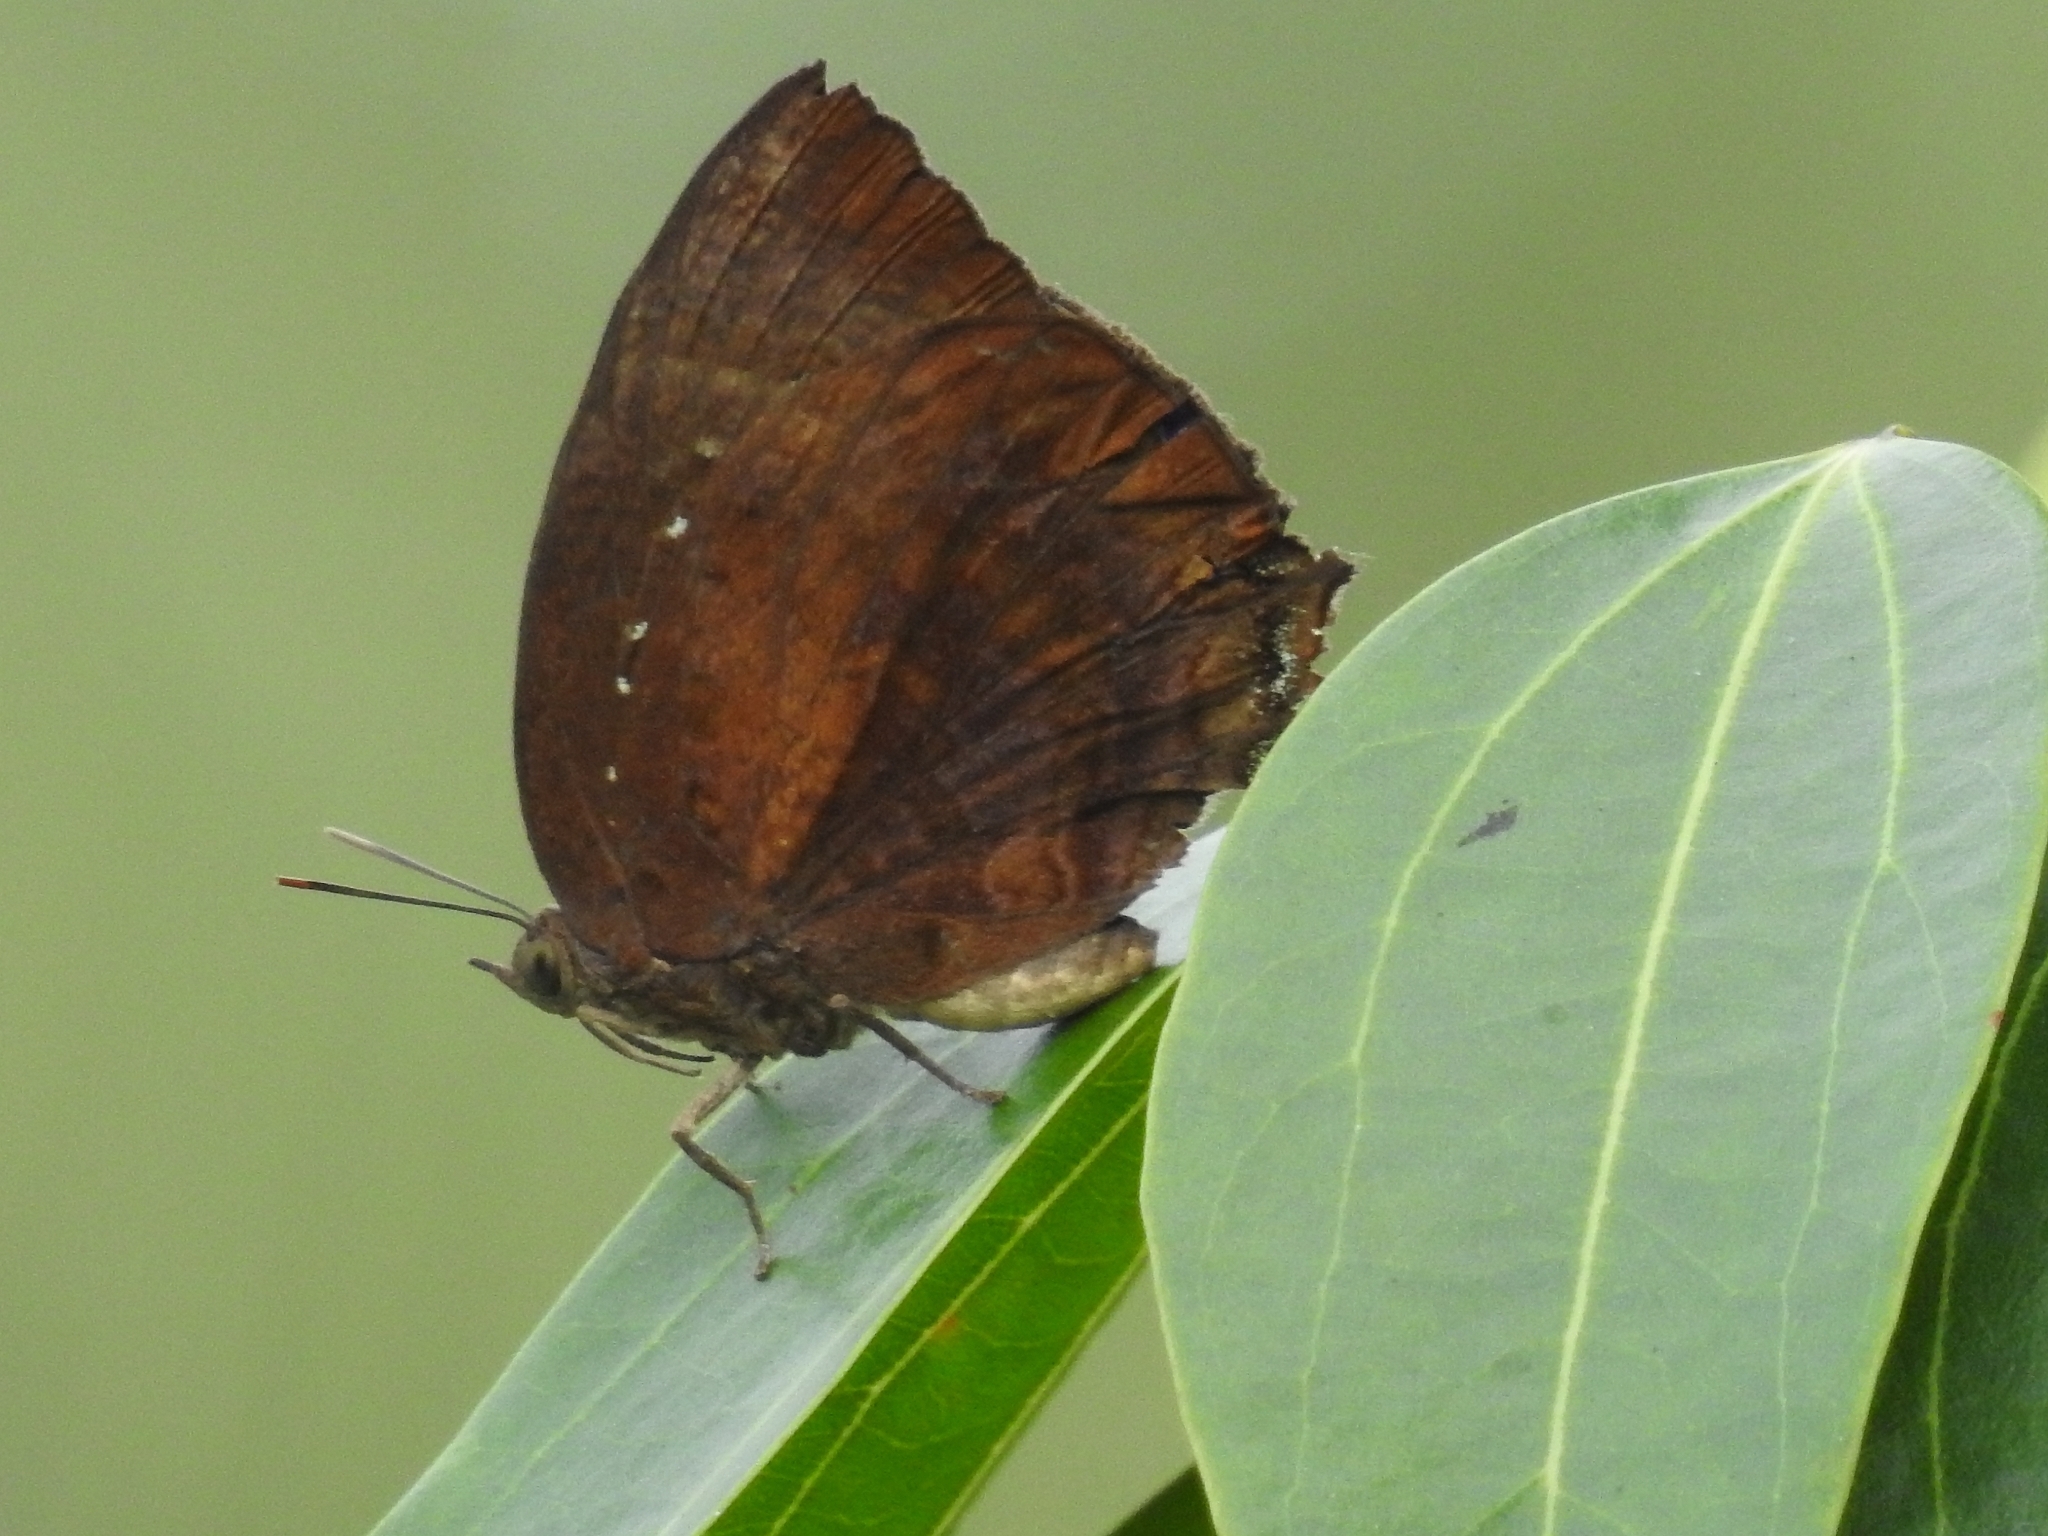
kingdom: Animalia
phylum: Arthropoda
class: Insecta
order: Lepidoptera
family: Lycaenidae
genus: Arhopala
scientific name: Arhopala centaurus
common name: Dull oak-blue
